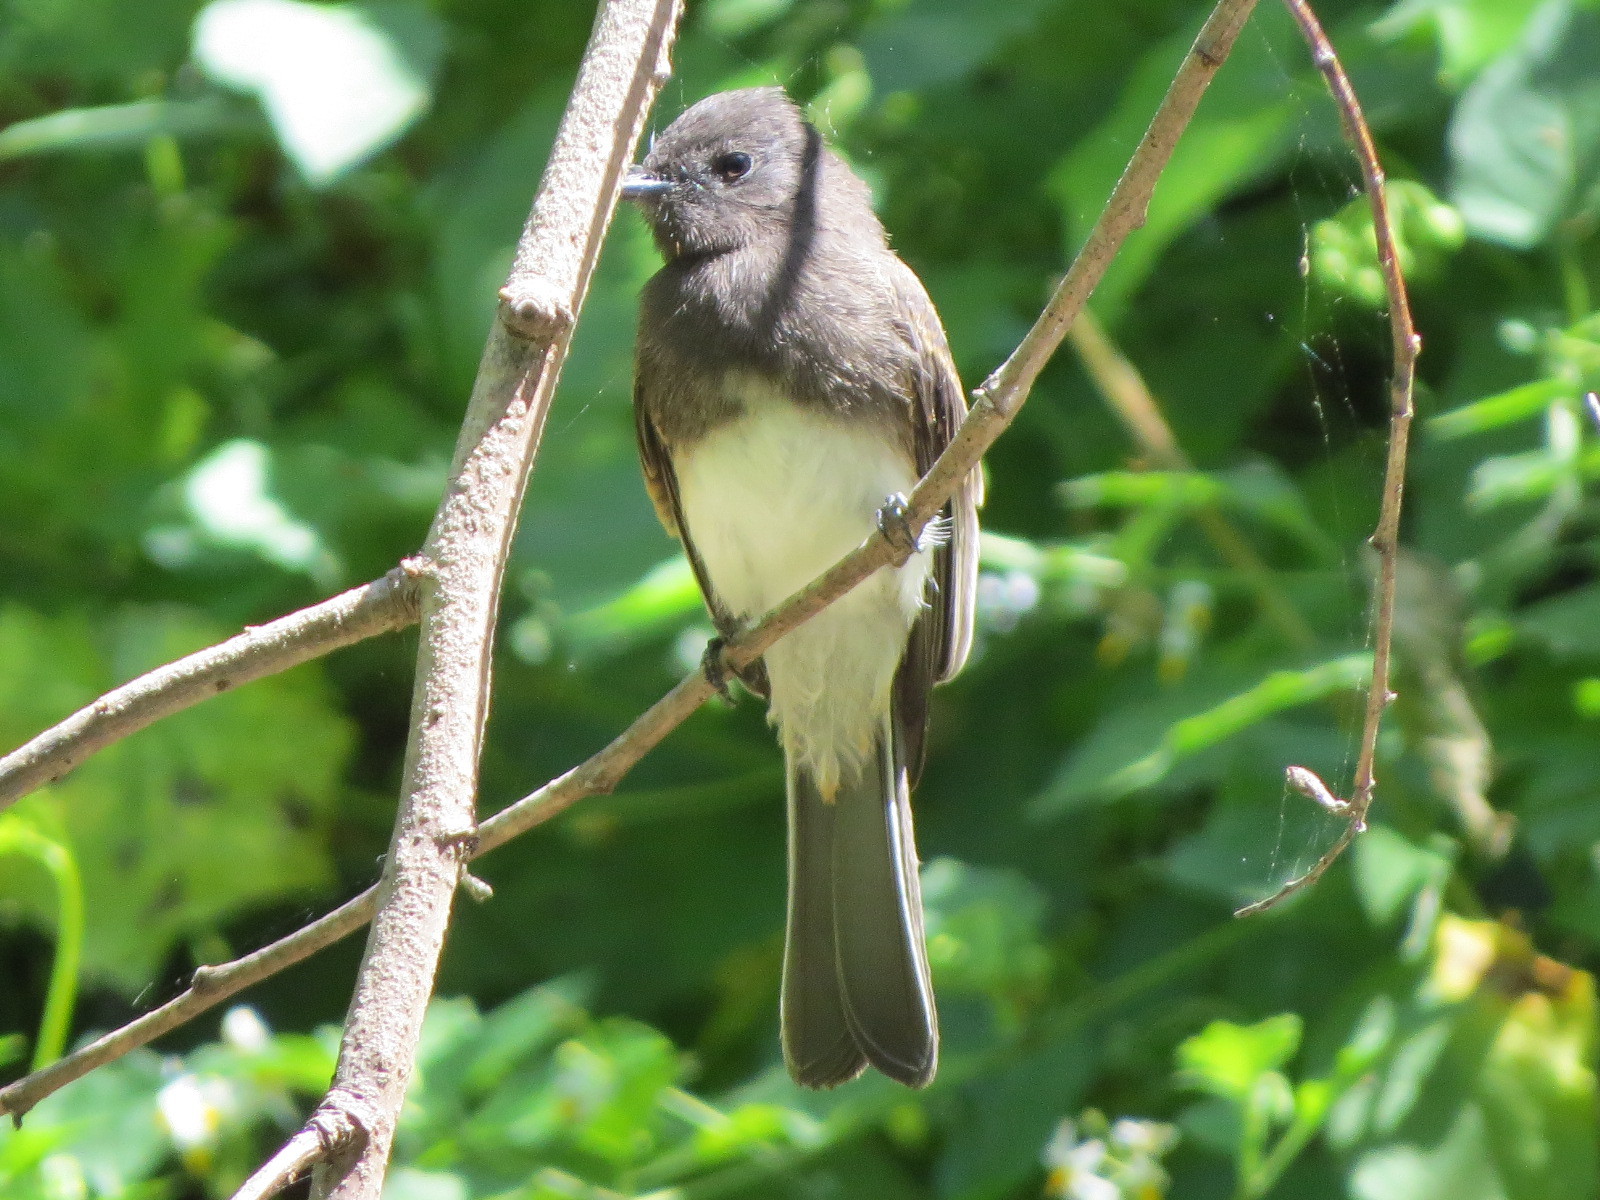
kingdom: Animalia
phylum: Chordata
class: Aves
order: Passeriformes
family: Tyrannidae
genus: Sayornis
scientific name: Sayornis nigricans
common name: Black phoebe
